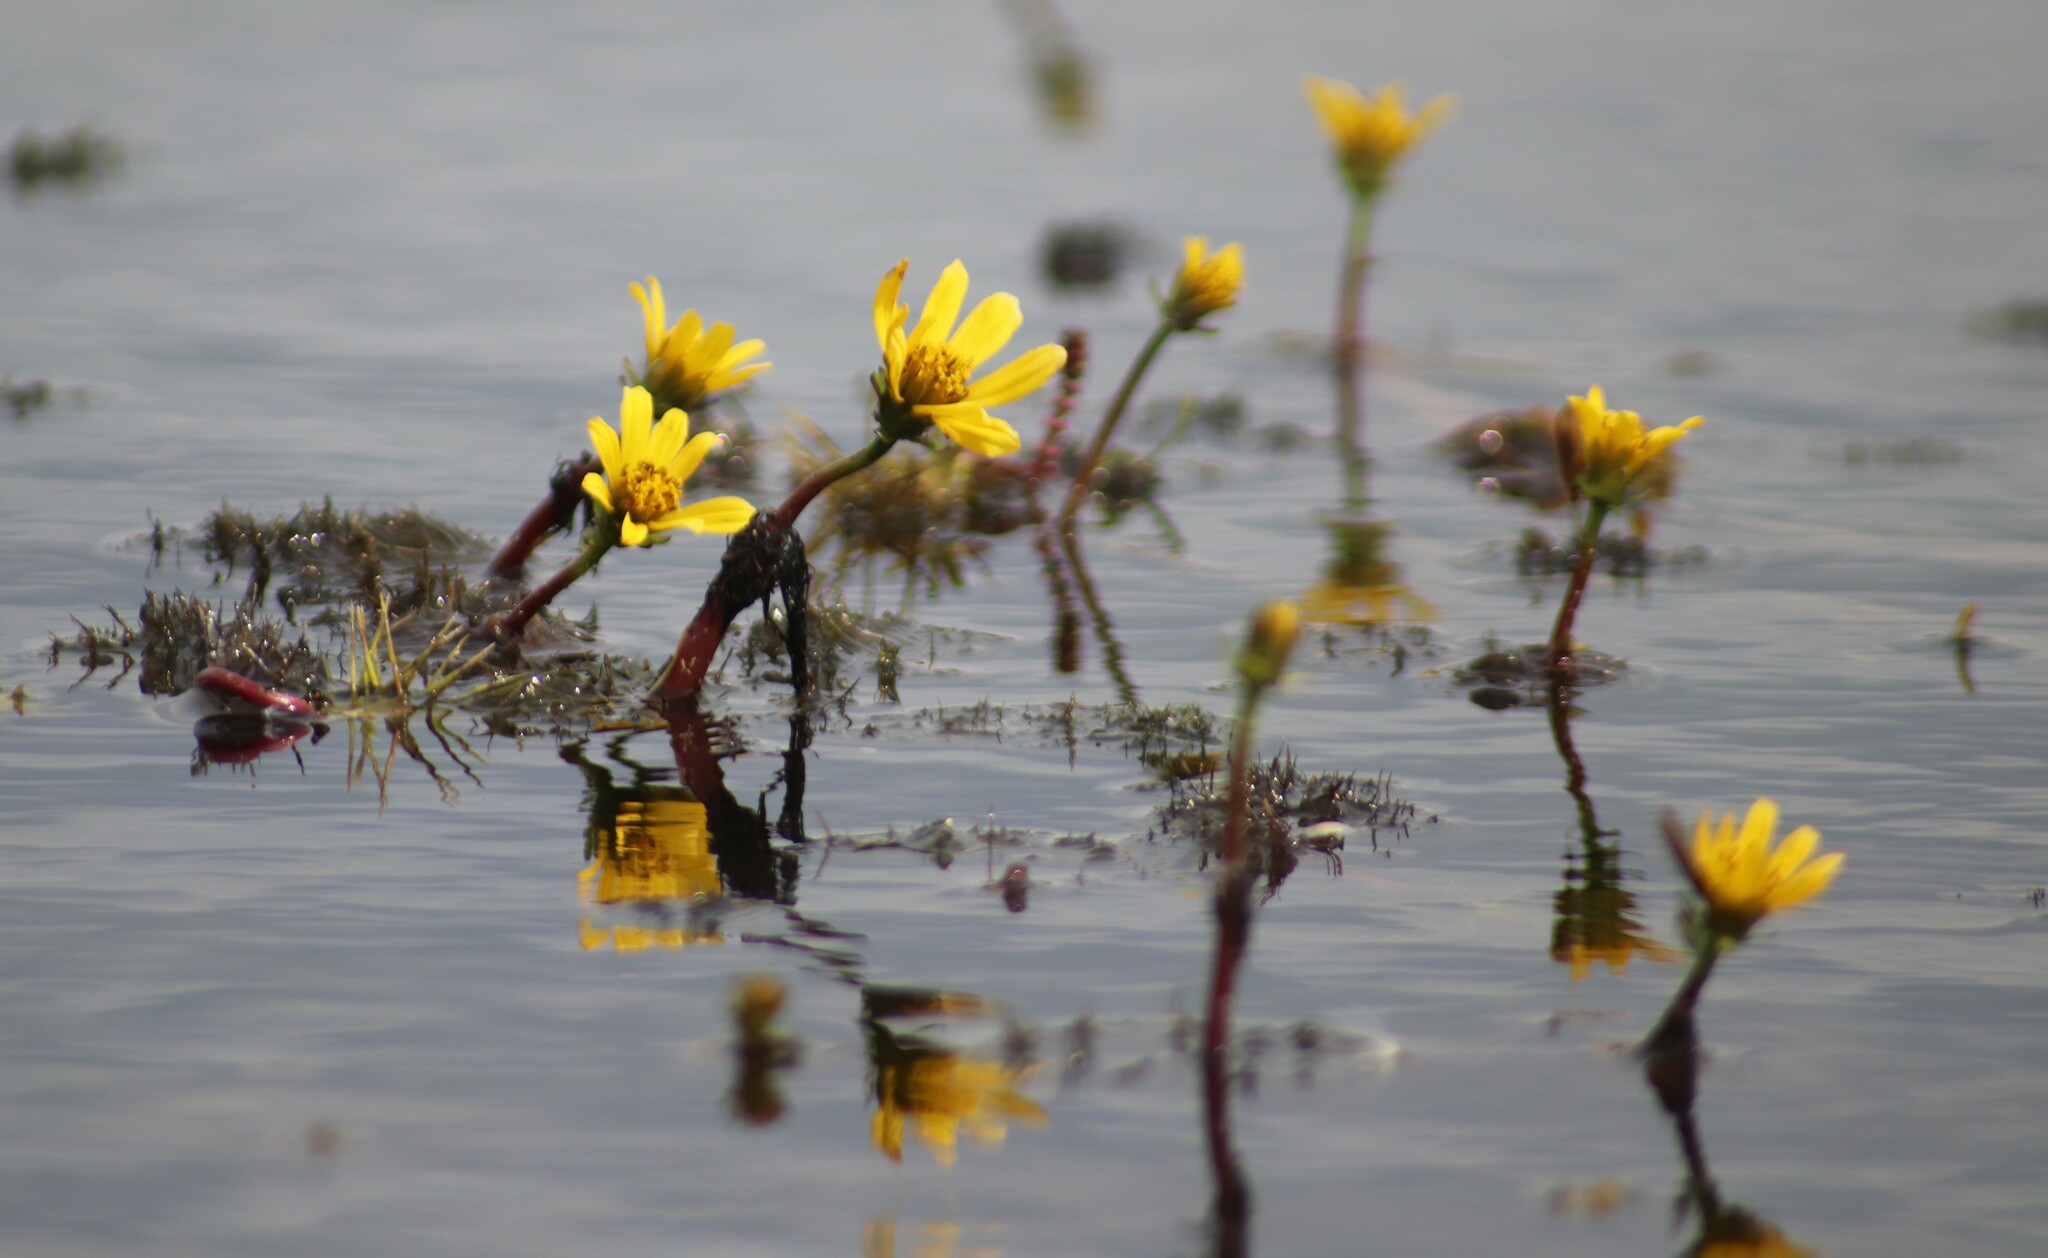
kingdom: Plantae
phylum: Tracheophyta
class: Magnoliopsida
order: Asterales
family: Asteraceae
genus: Bidens
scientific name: Bidens beckii
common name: Beck's beggarticks
